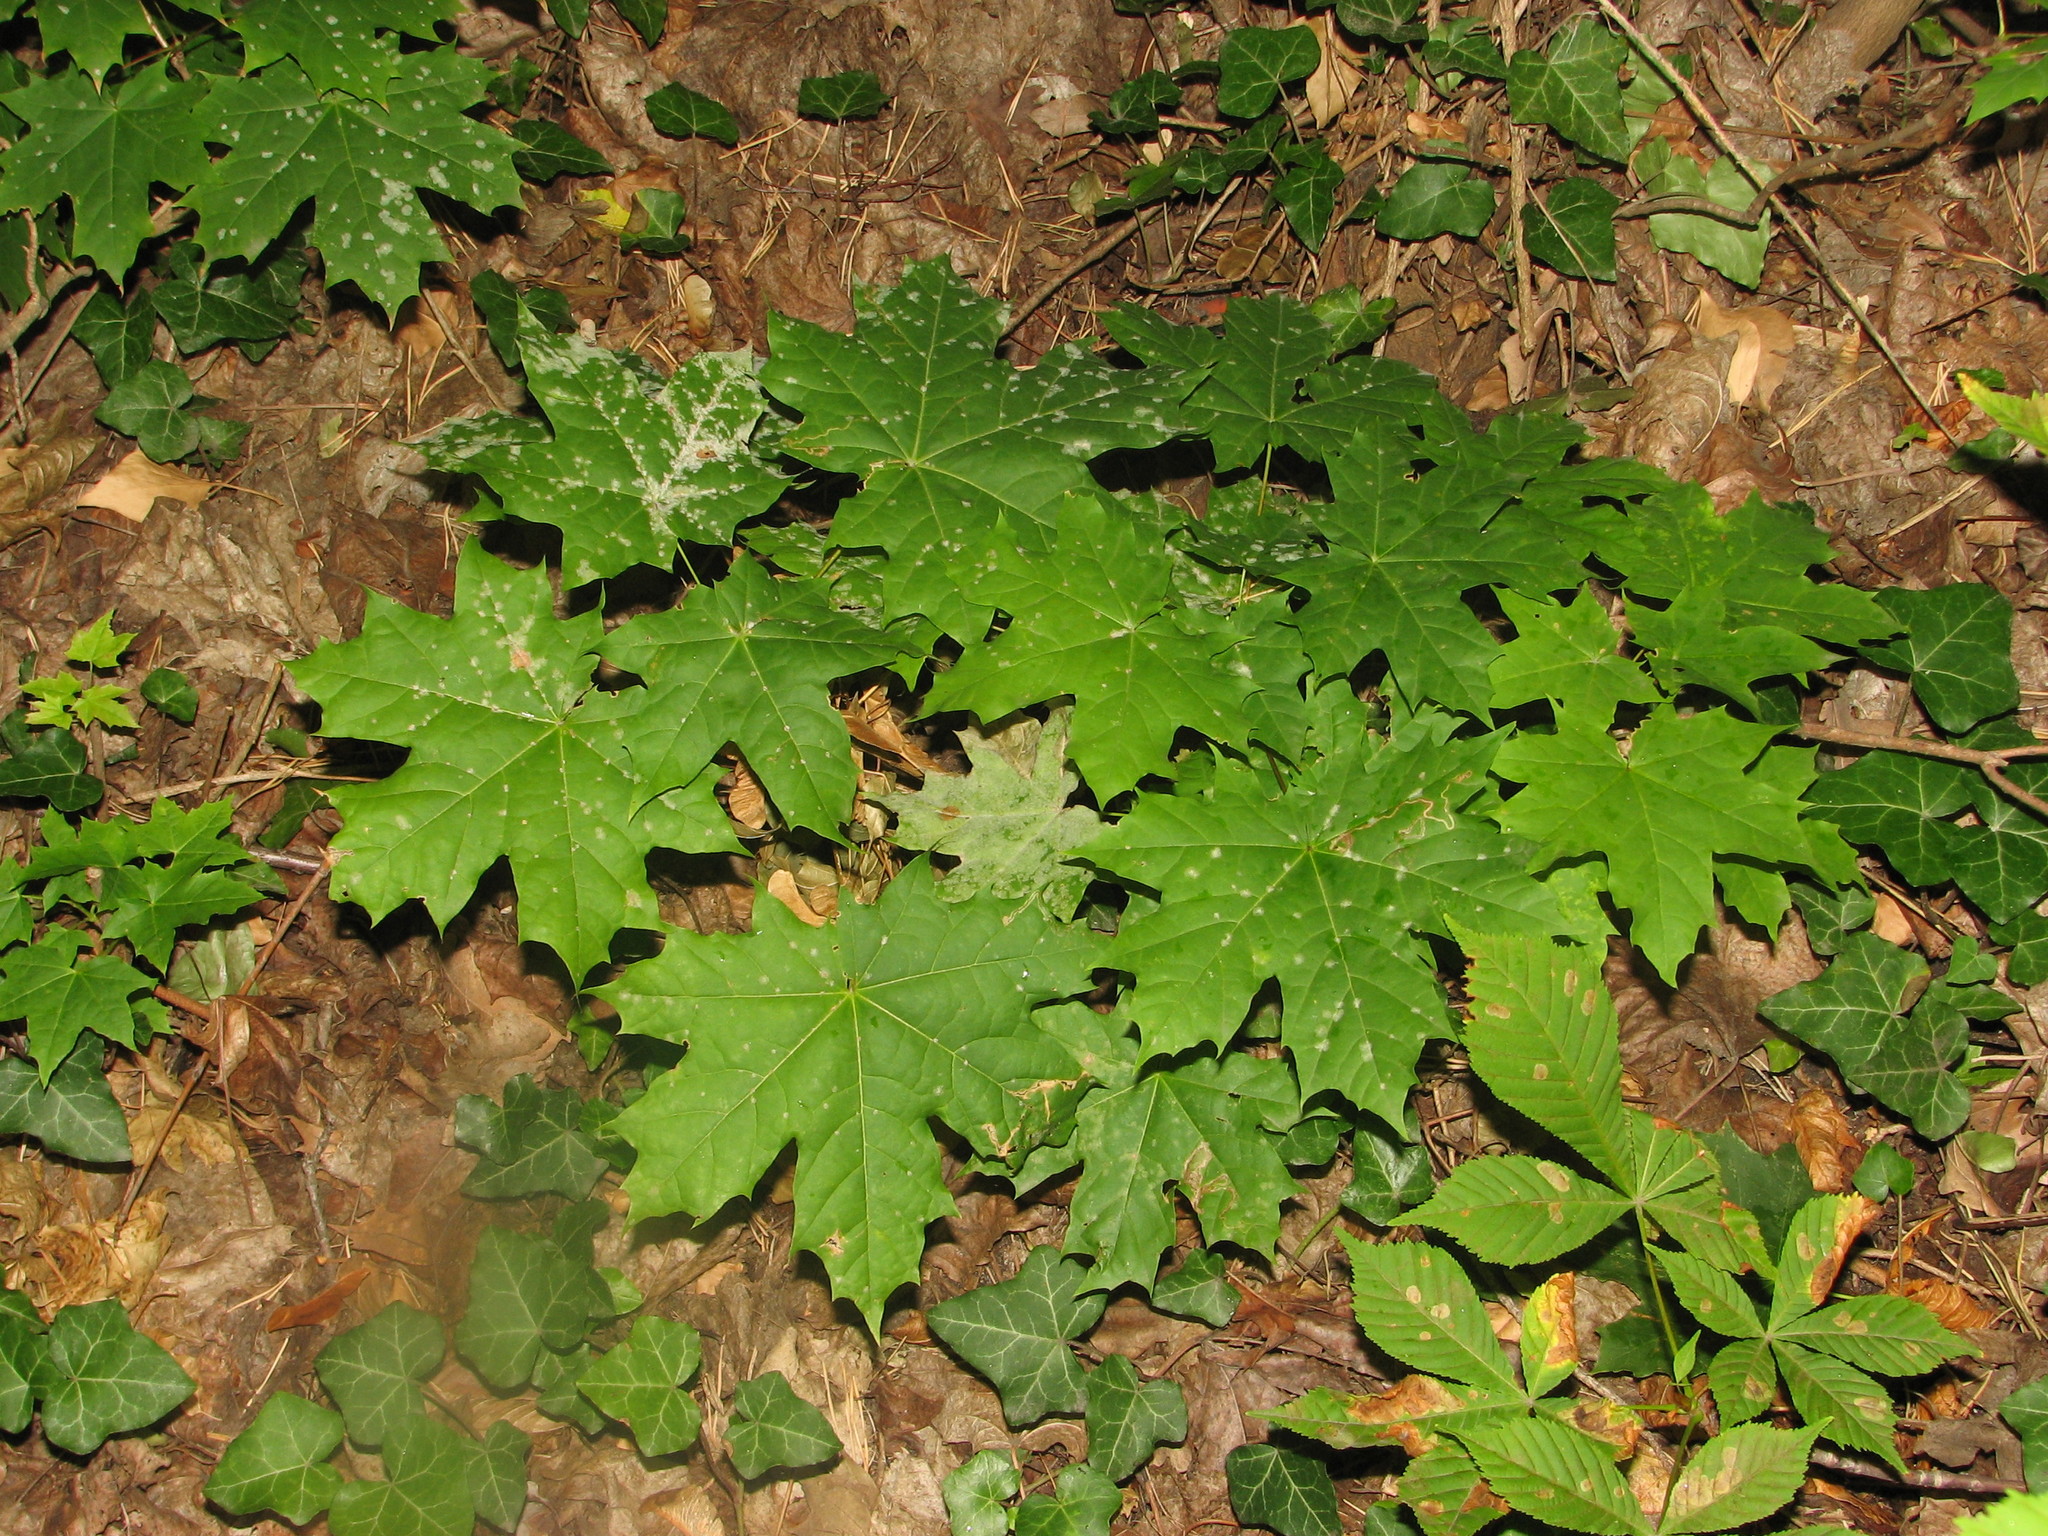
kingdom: Plantae
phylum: Tracheophyta
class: Magnoliopsida
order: Sapindales
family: Sapindaceae
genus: Acer
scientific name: Acer platanoides
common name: Norway maple
